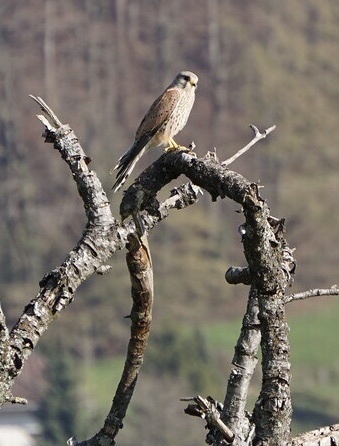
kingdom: Animalia
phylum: Chordata
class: Aves
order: Falconiformes
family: Falconidae
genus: Falco
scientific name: Falco tinnunculus
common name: Common kestrel
